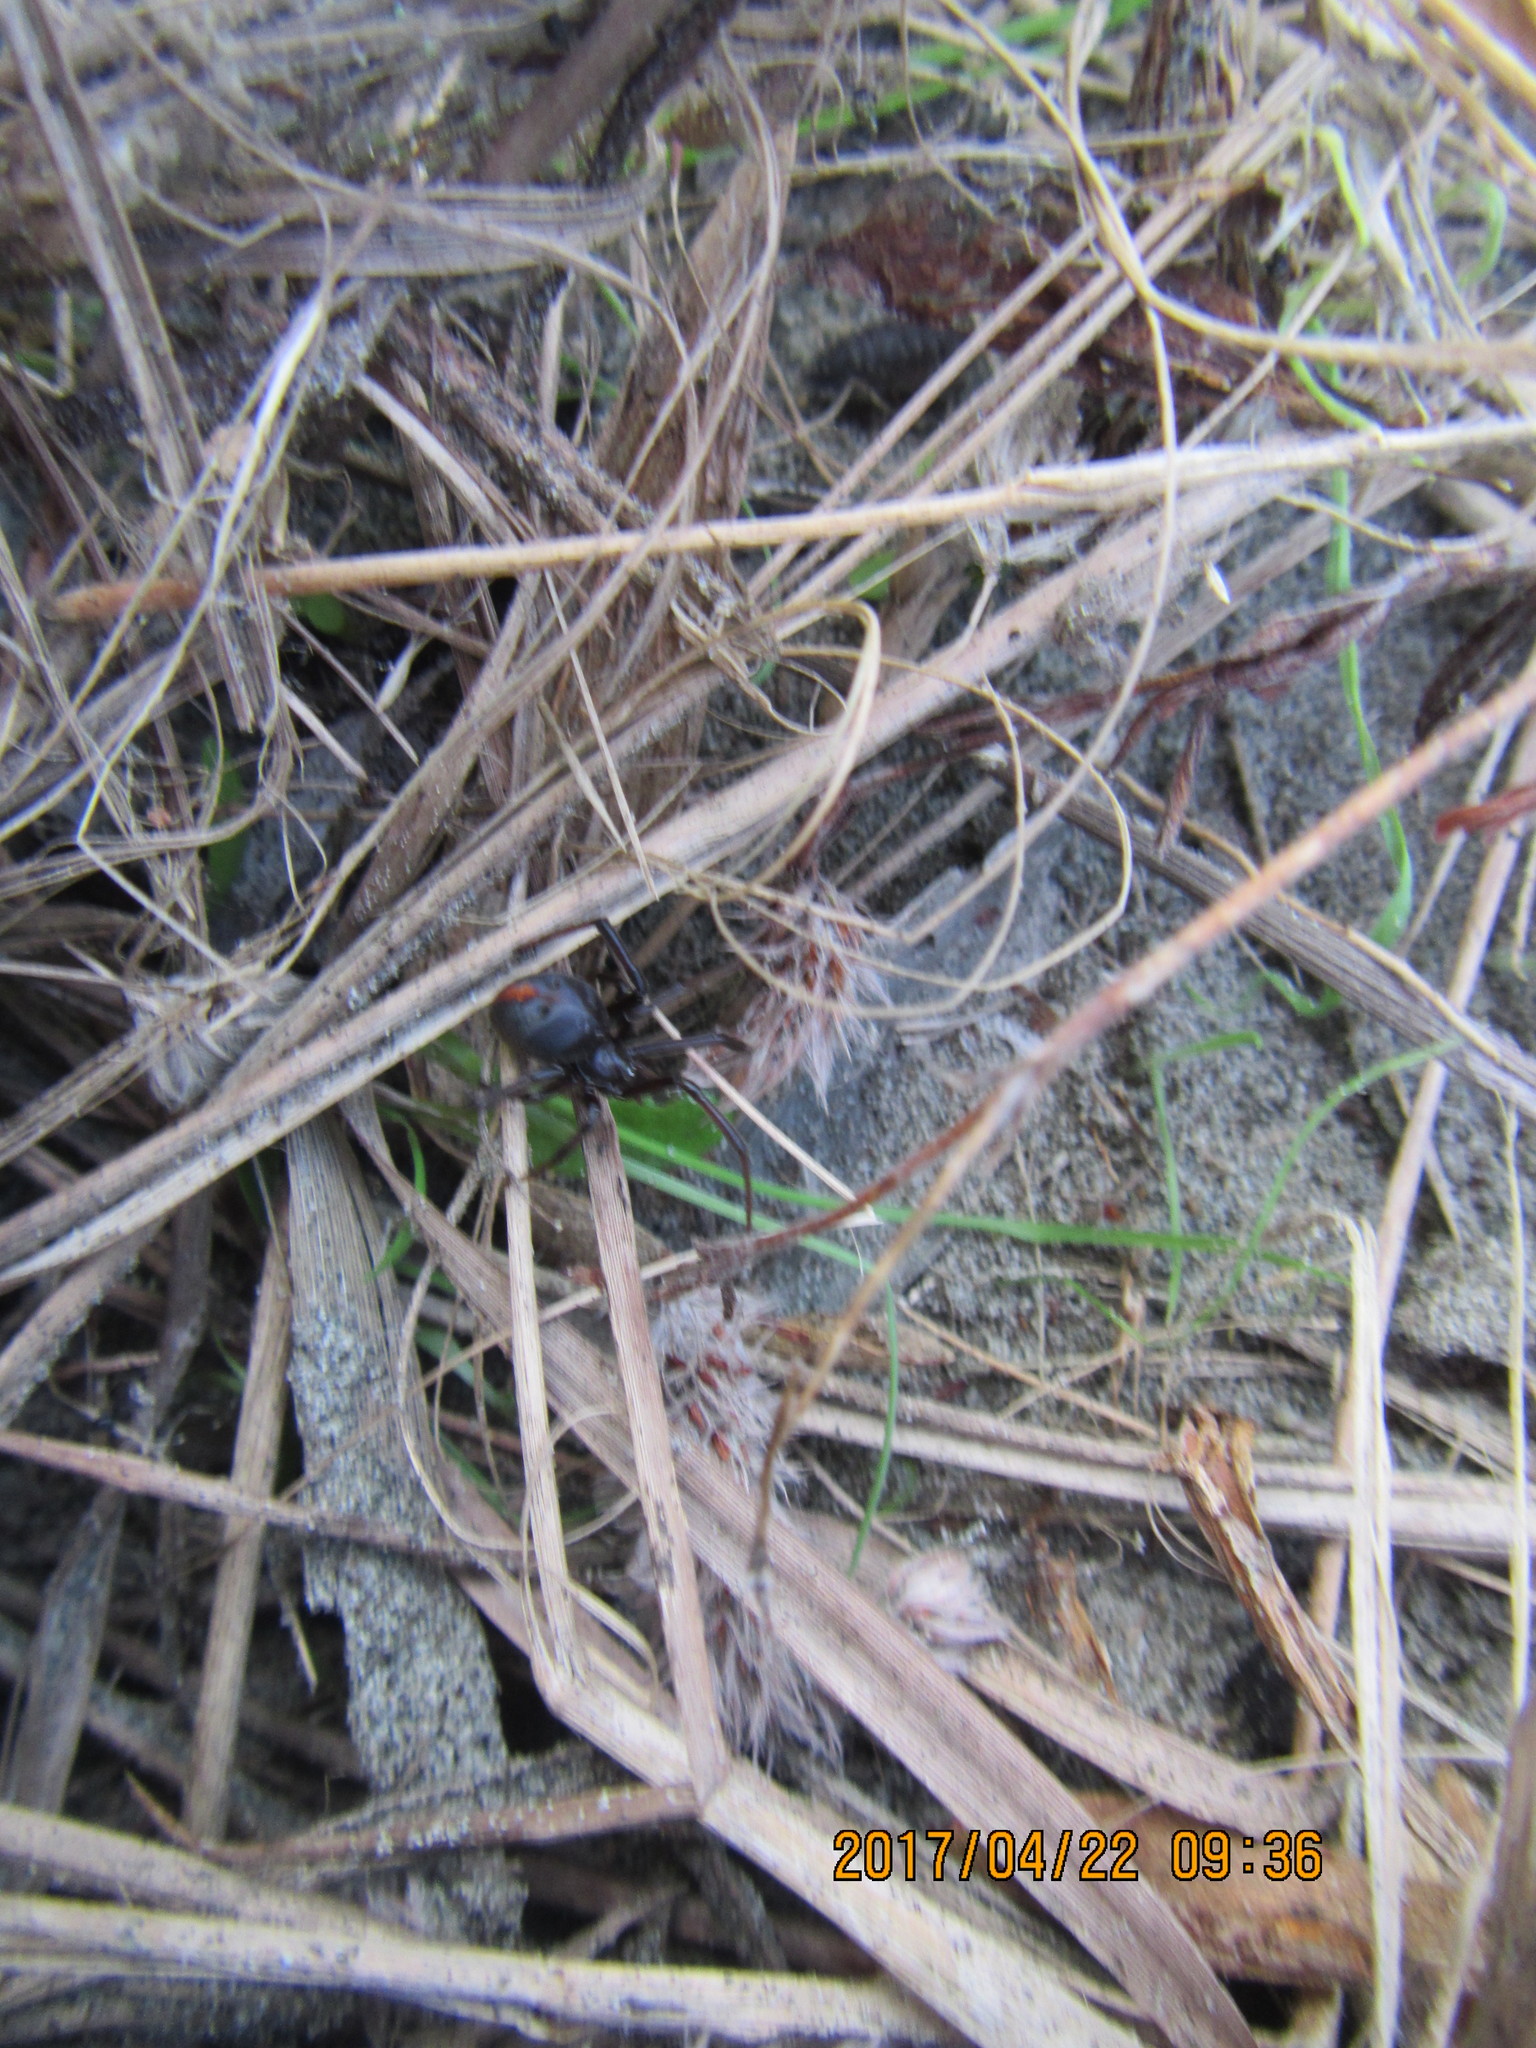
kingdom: Animalia
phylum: Arthropoda
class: Arachnida
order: Araneae
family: Theridiidae
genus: Latrodectus
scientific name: Latrodectus katipo
